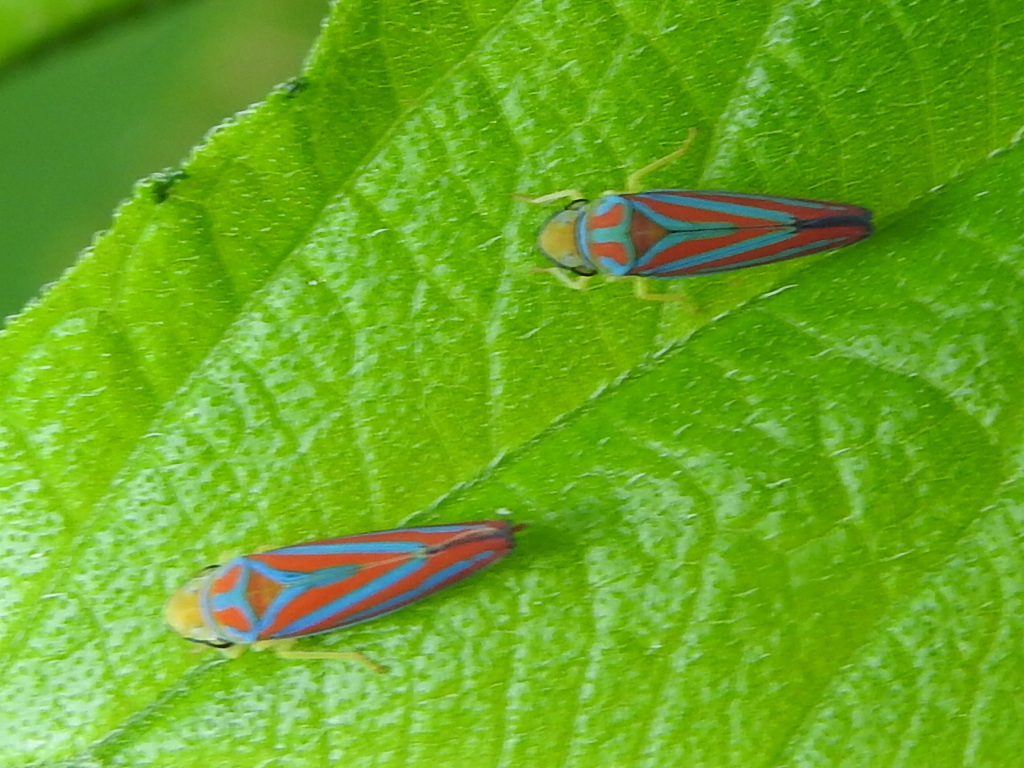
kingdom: Animalia
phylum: Arthropoda
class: Insecta
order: Hemiptera
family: Cicadellidae
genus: Graphocephala
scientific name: Graphocephala coccinea
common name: Candy-striped leafhopper
